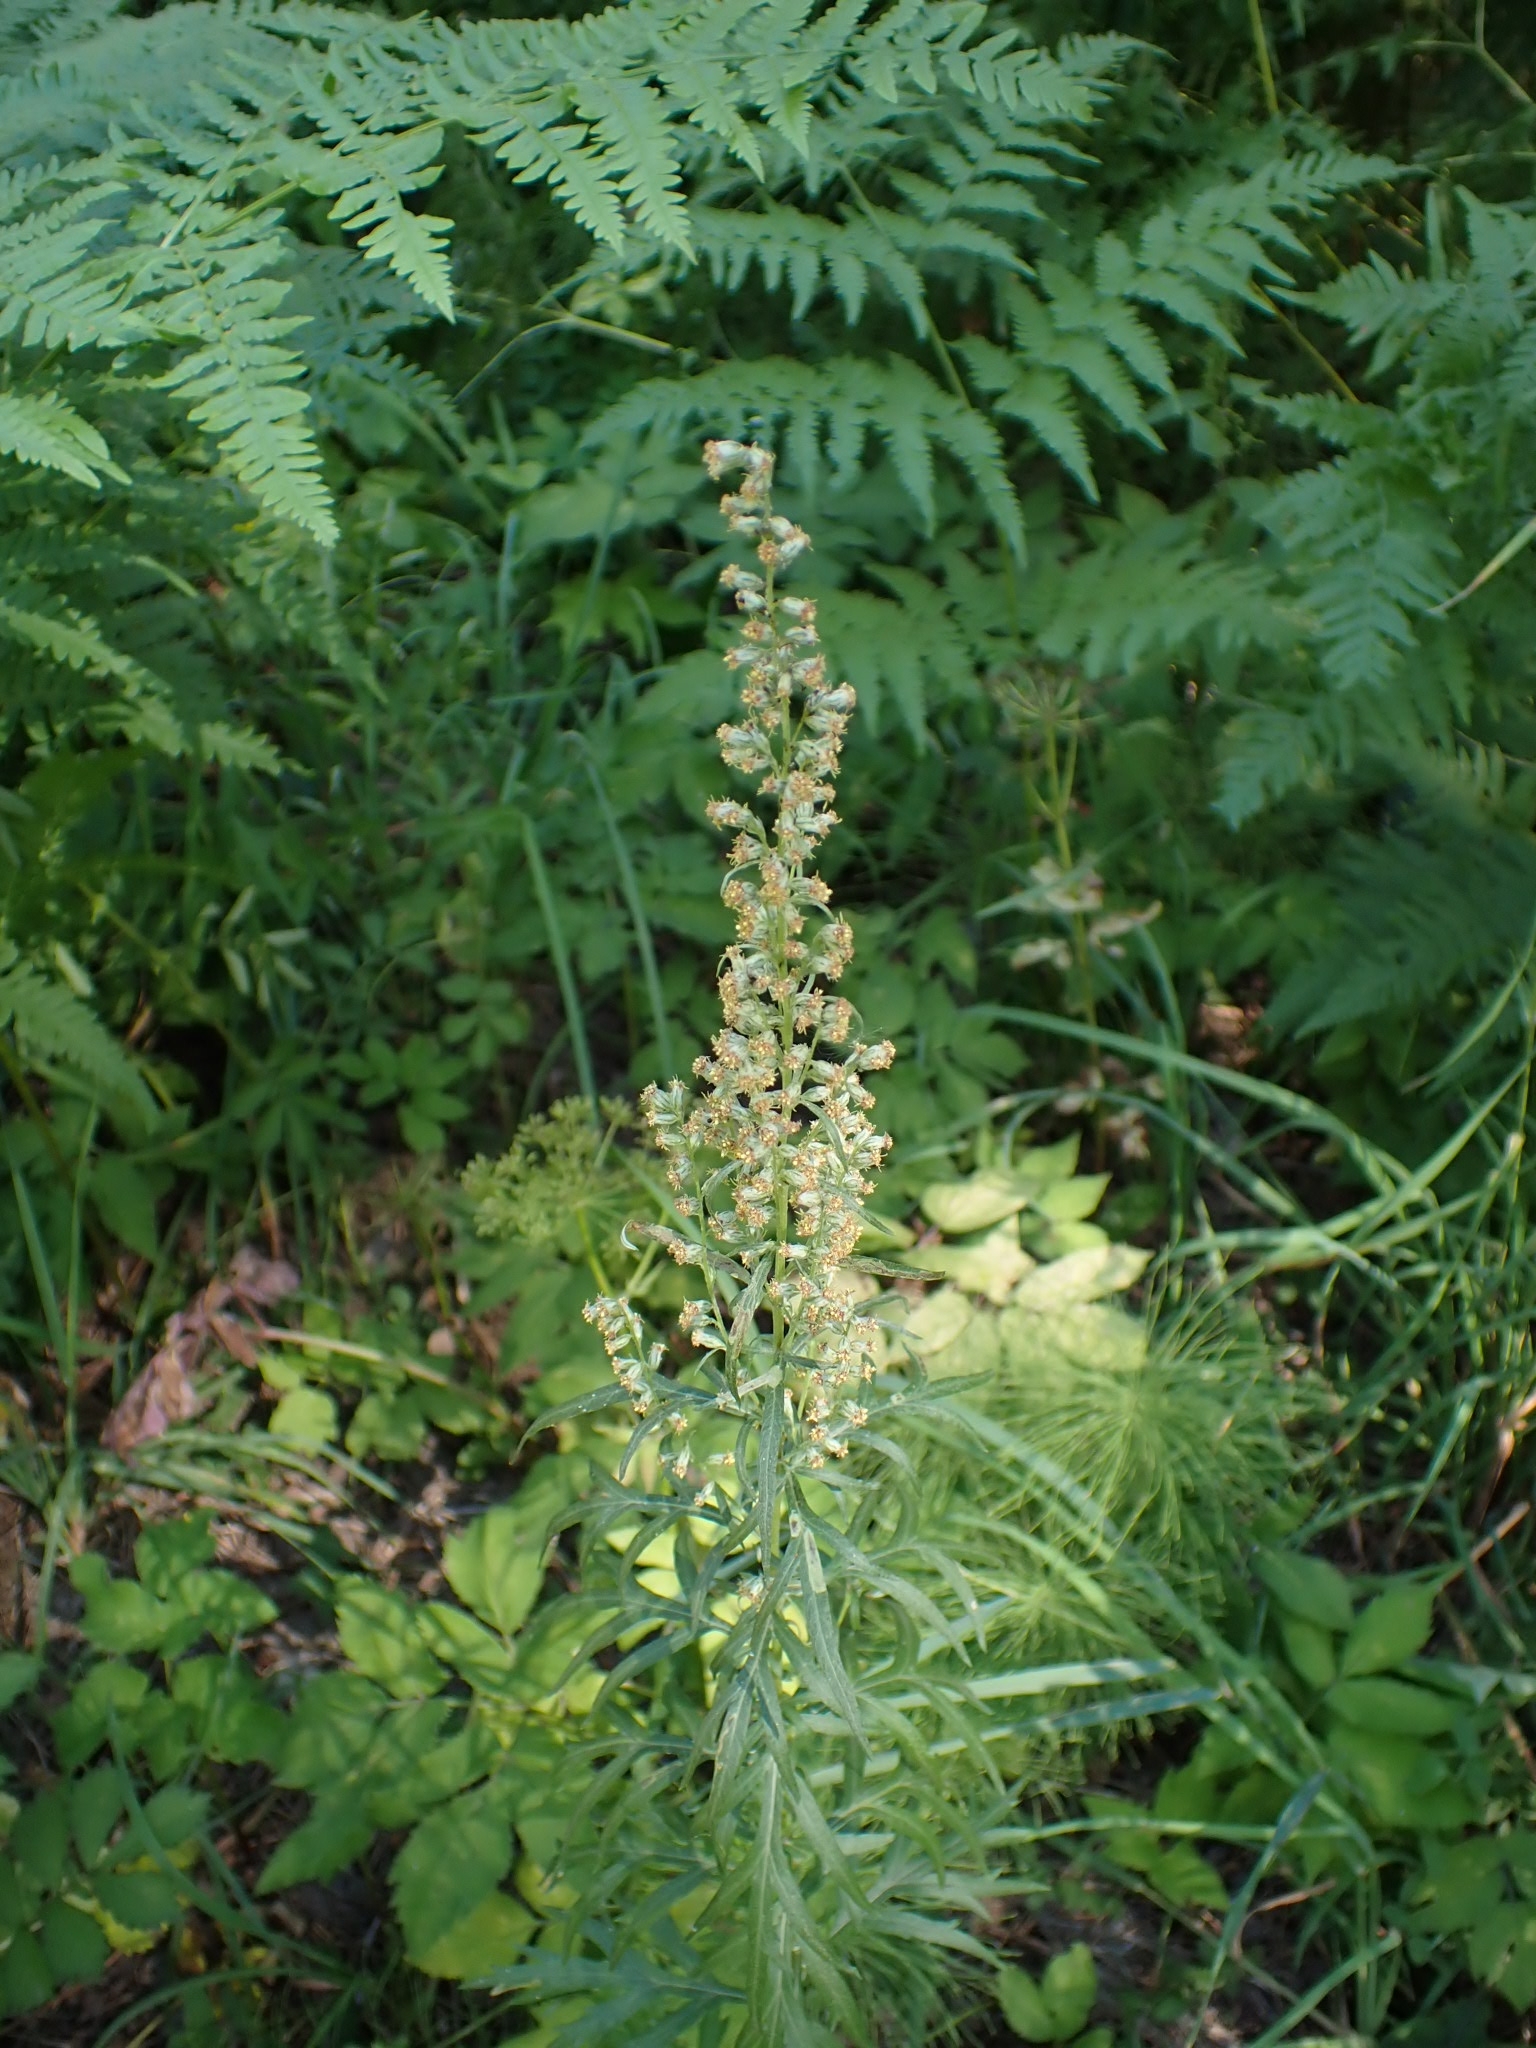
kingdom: Plantae
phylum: Tracheophyta
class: Magnoliopsida
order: Asterales
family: Asteraceae
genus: Artemisia
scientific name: Artemisia vulgaris
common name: Mugwort
